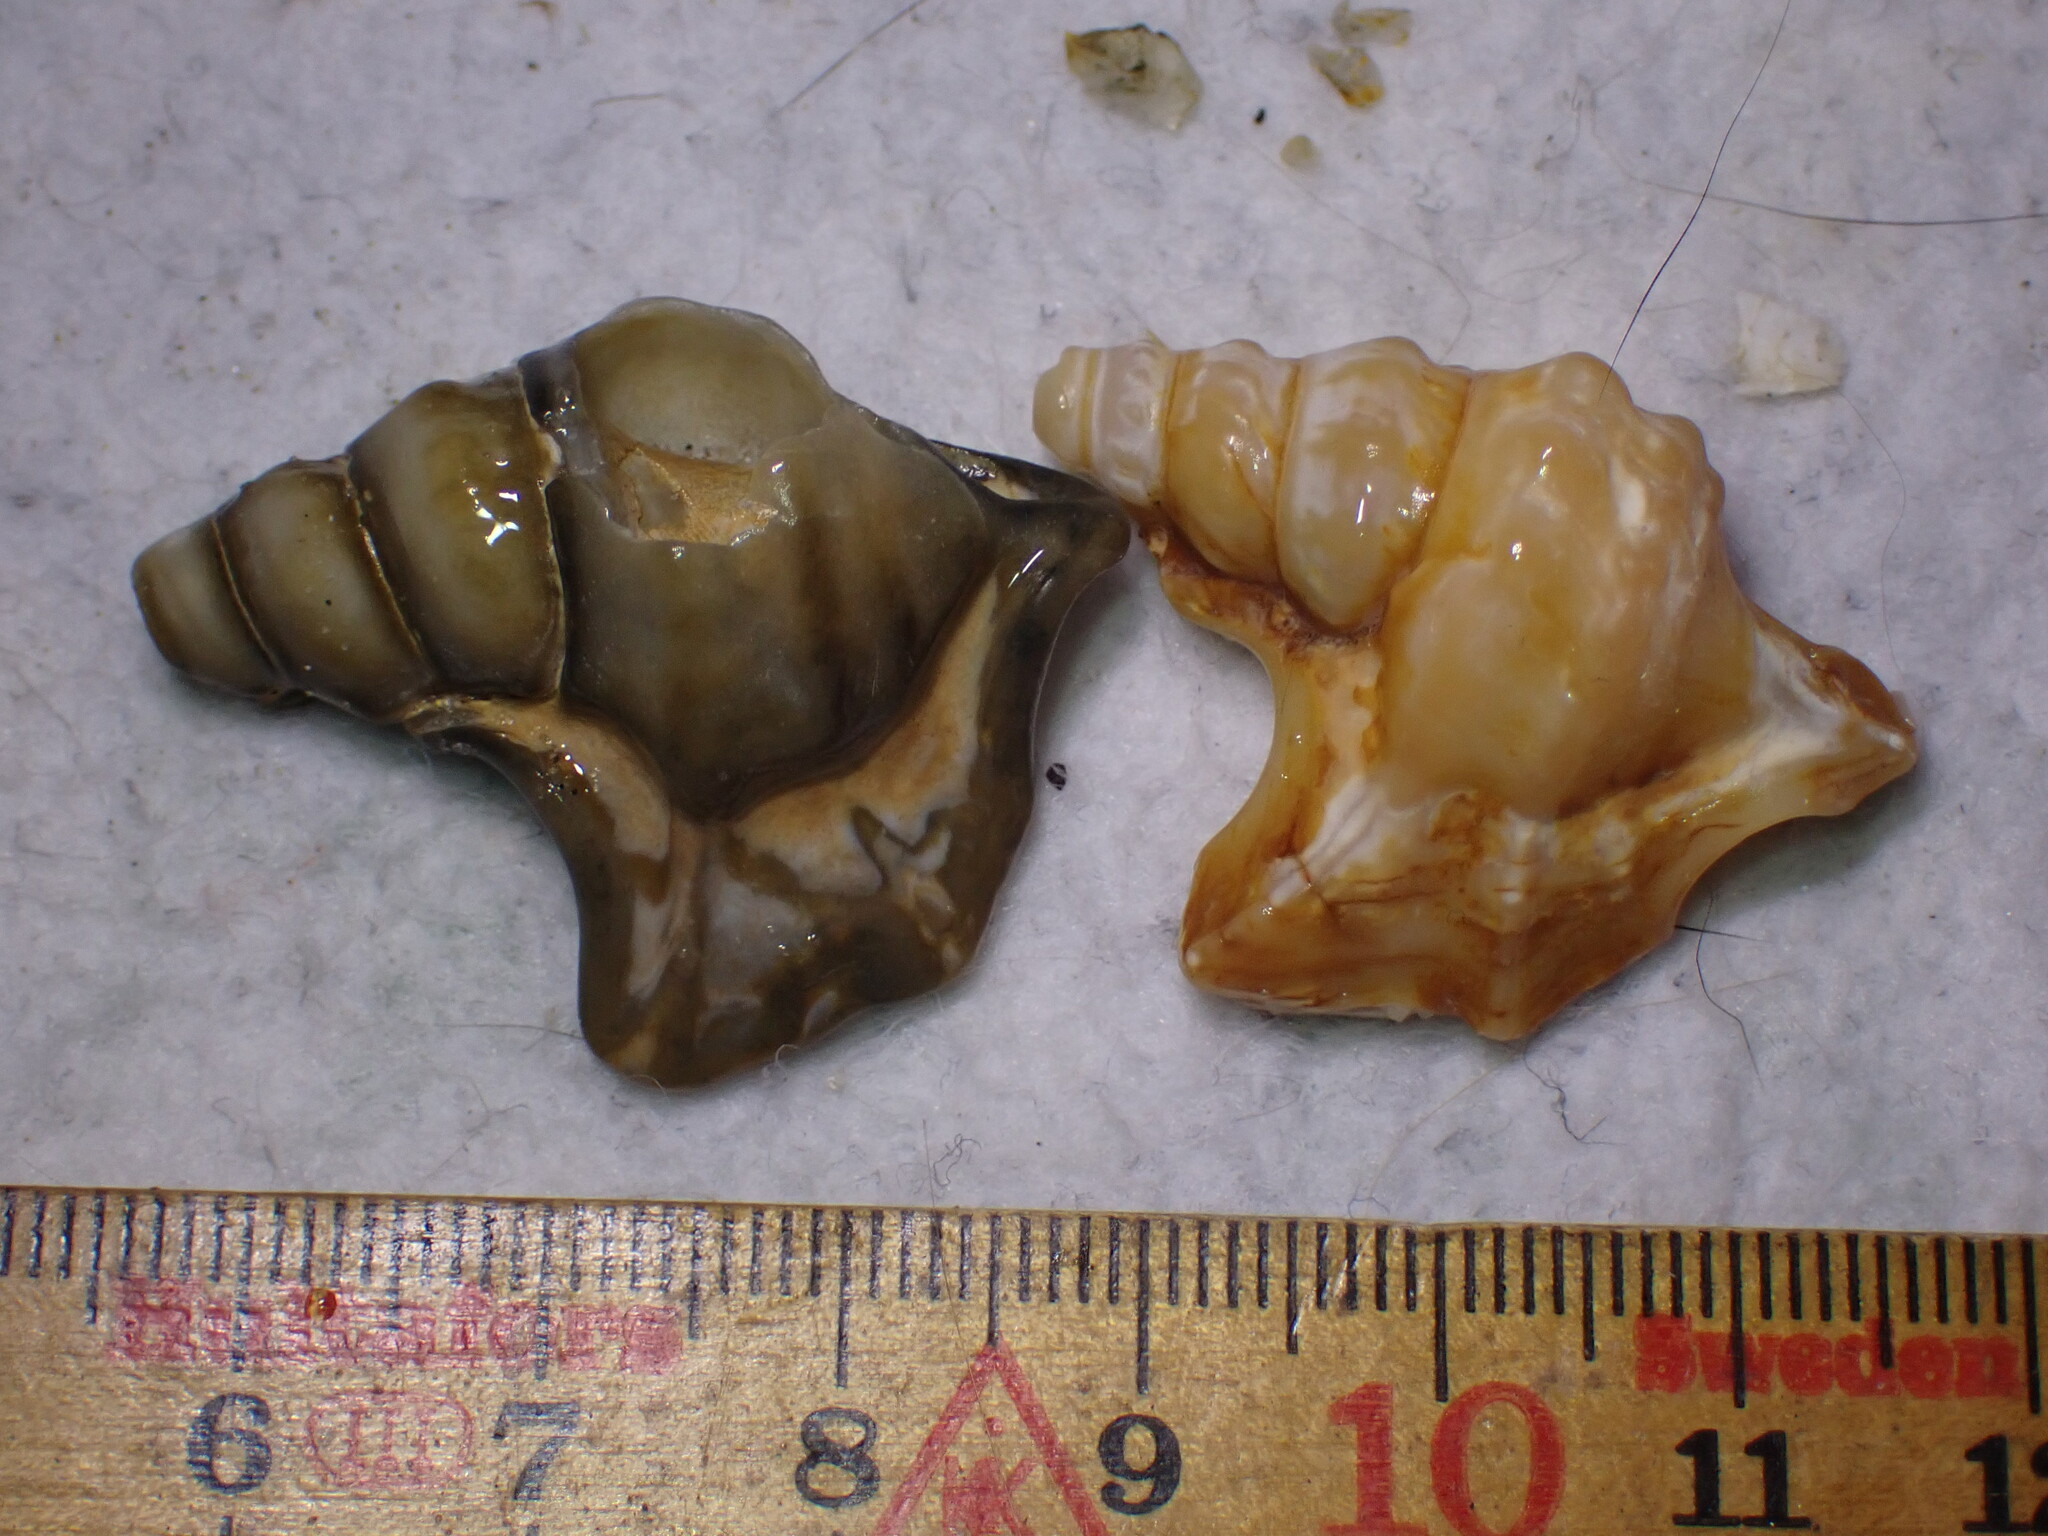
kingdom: Animalia
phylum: Mollusca
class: Gastropoda
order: Littorinimorpha
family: Aporrhaidae
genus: Aporrhais
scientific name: Aporrhais pespelecani
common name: Common pelican’s foot
